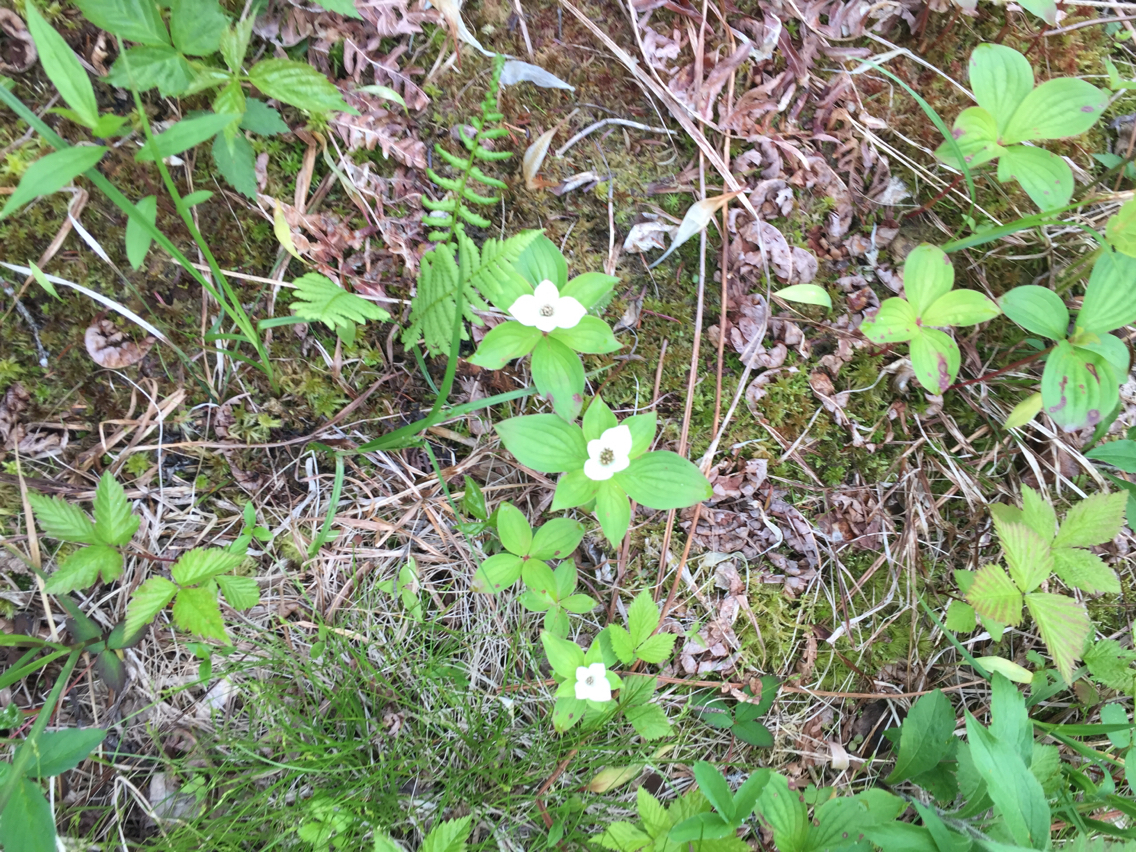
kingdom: Plantae
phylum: Tracheophyta
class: Magnoliopsida
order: Cornales
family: Cornaceae
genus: Cornus
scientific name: Cornus canadensis
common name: Creeping dogwood
